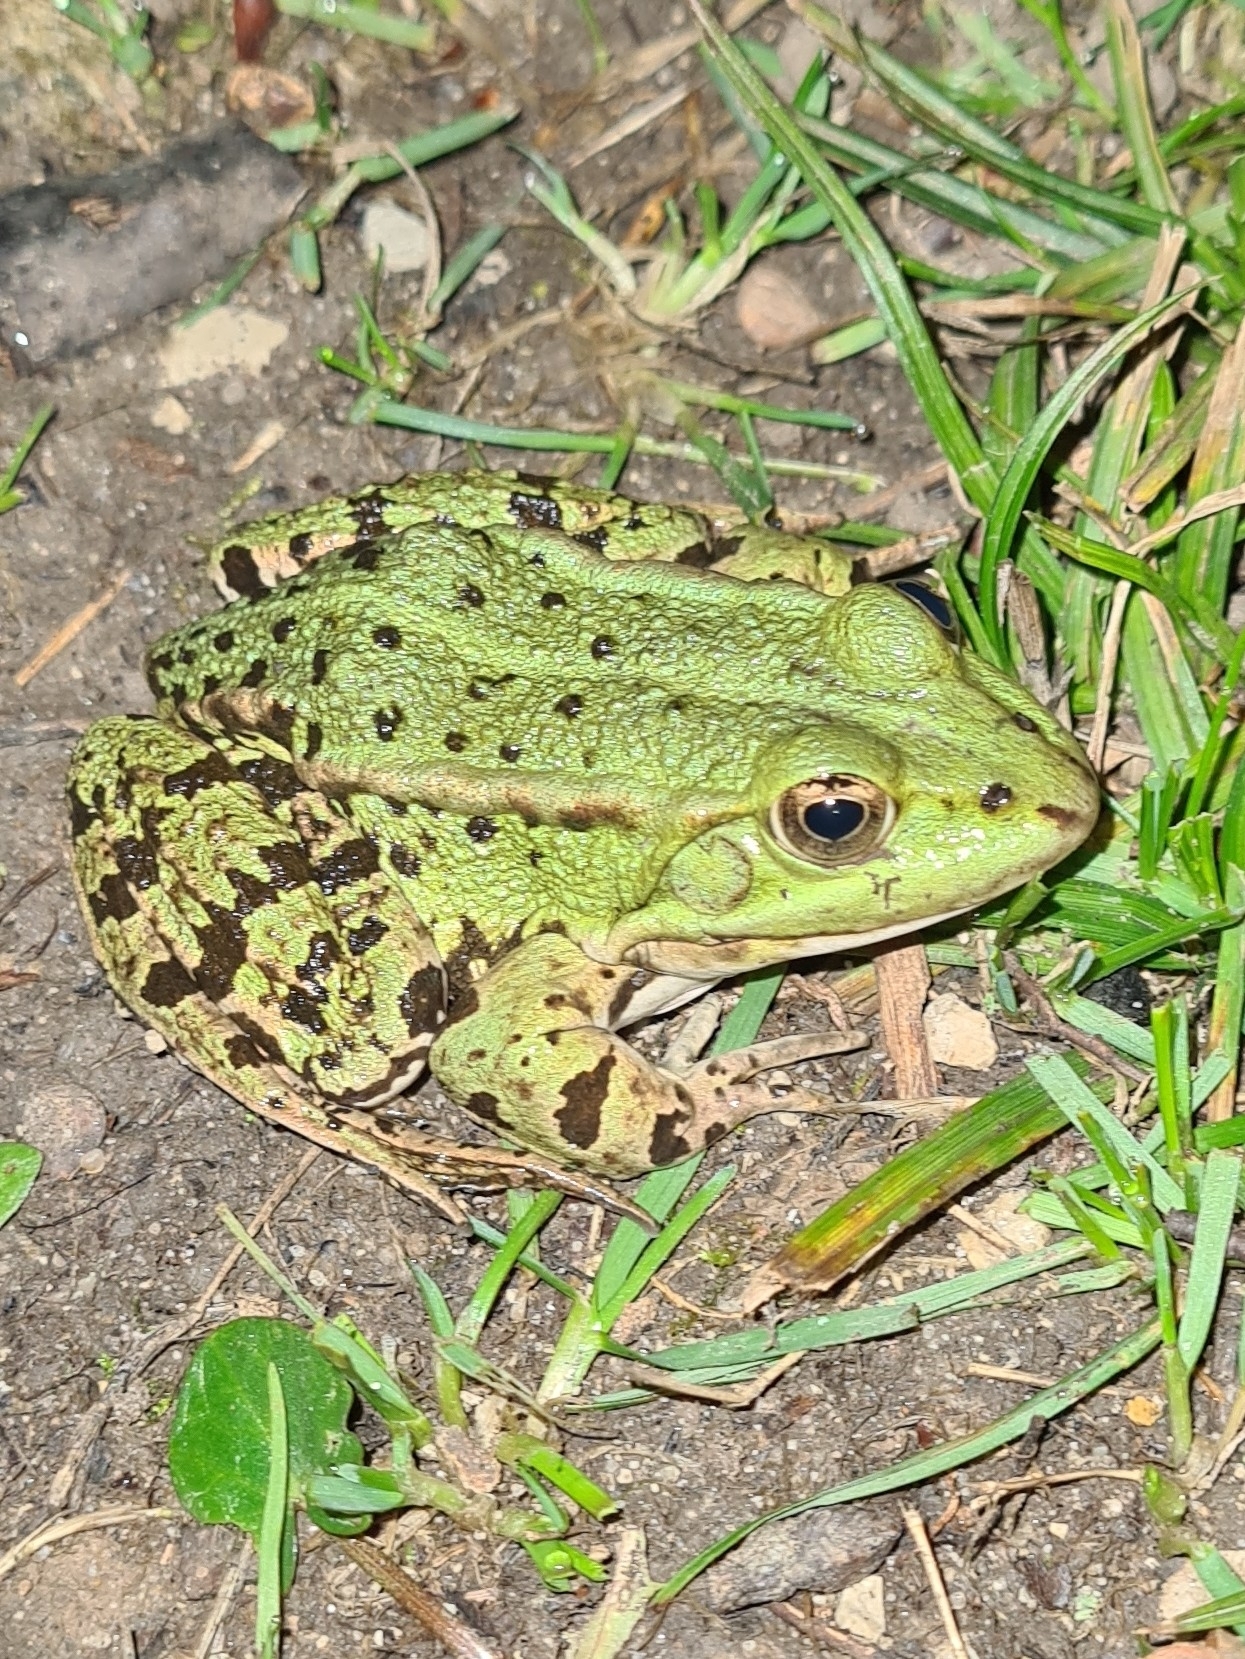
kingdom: Animalia
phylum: Chordata
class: Amphibia
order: Anura
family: Ranidae
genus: Pelophylax
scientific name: Pelophylax lessonae
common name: Pool frog
